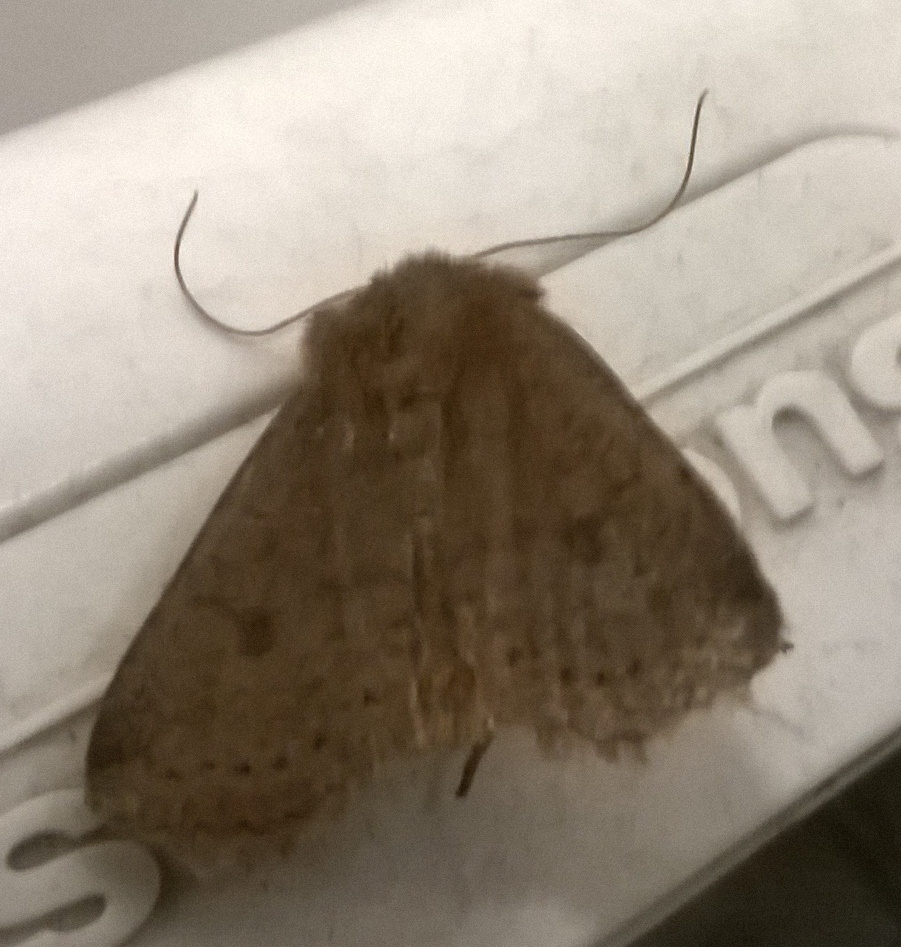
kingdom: Animalia
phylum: Arthropoda
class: Insecta
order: Lepidoptera
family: Noctuidae
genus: Conistra
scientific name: Conistra vaccinii
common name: Chestnut
